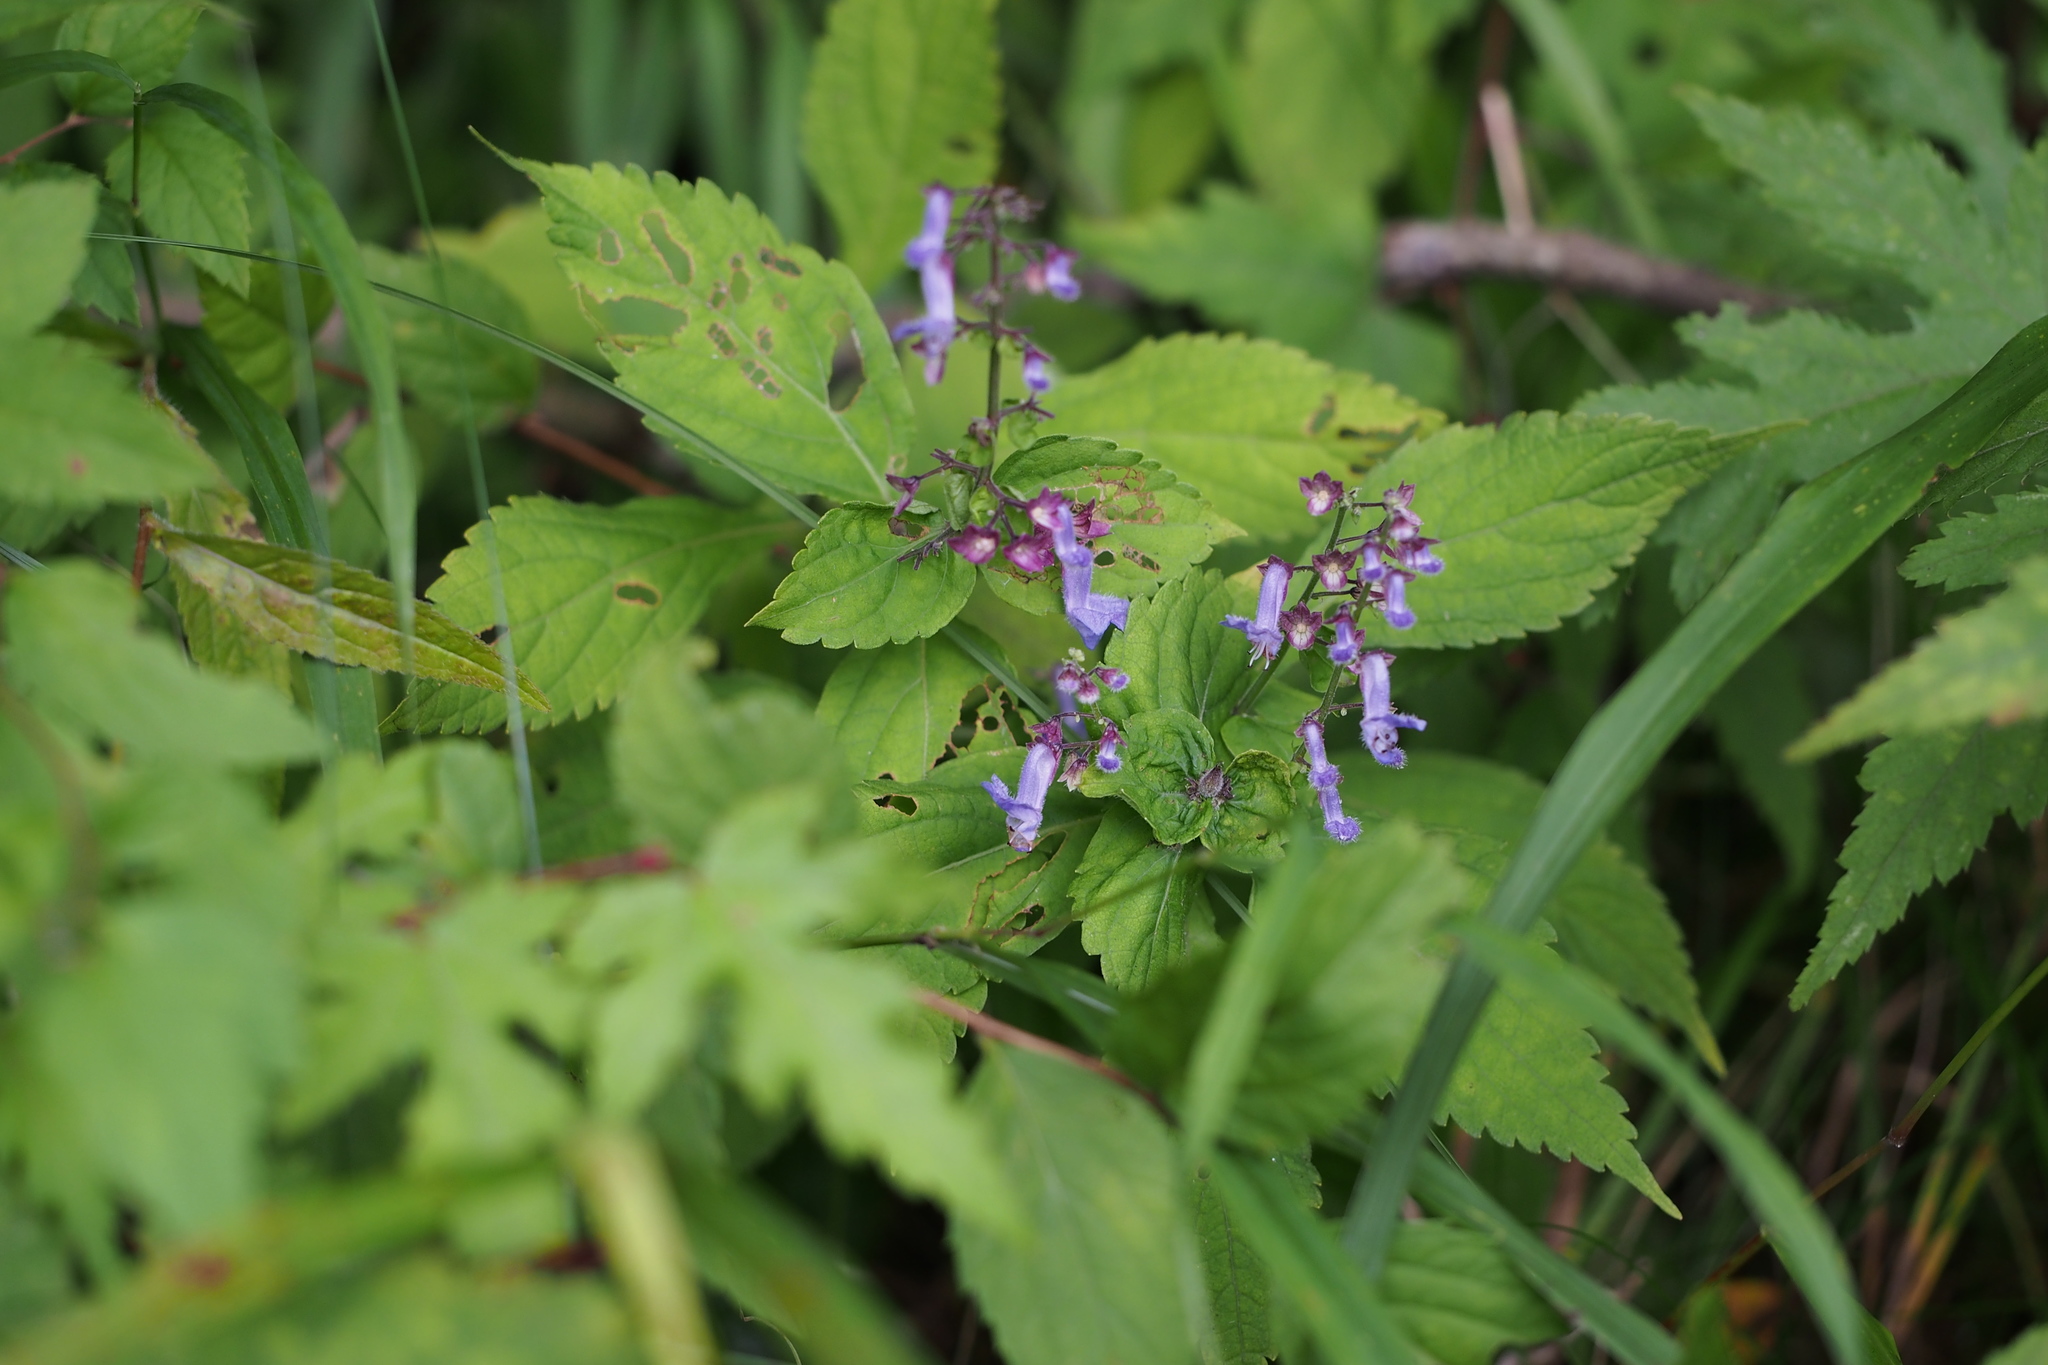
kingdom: Plantae
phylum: Tracheophyta
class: Magnoliopsida
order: Lamiales
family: Lamiaceae
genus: Isodon
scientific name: Isodon effusus
